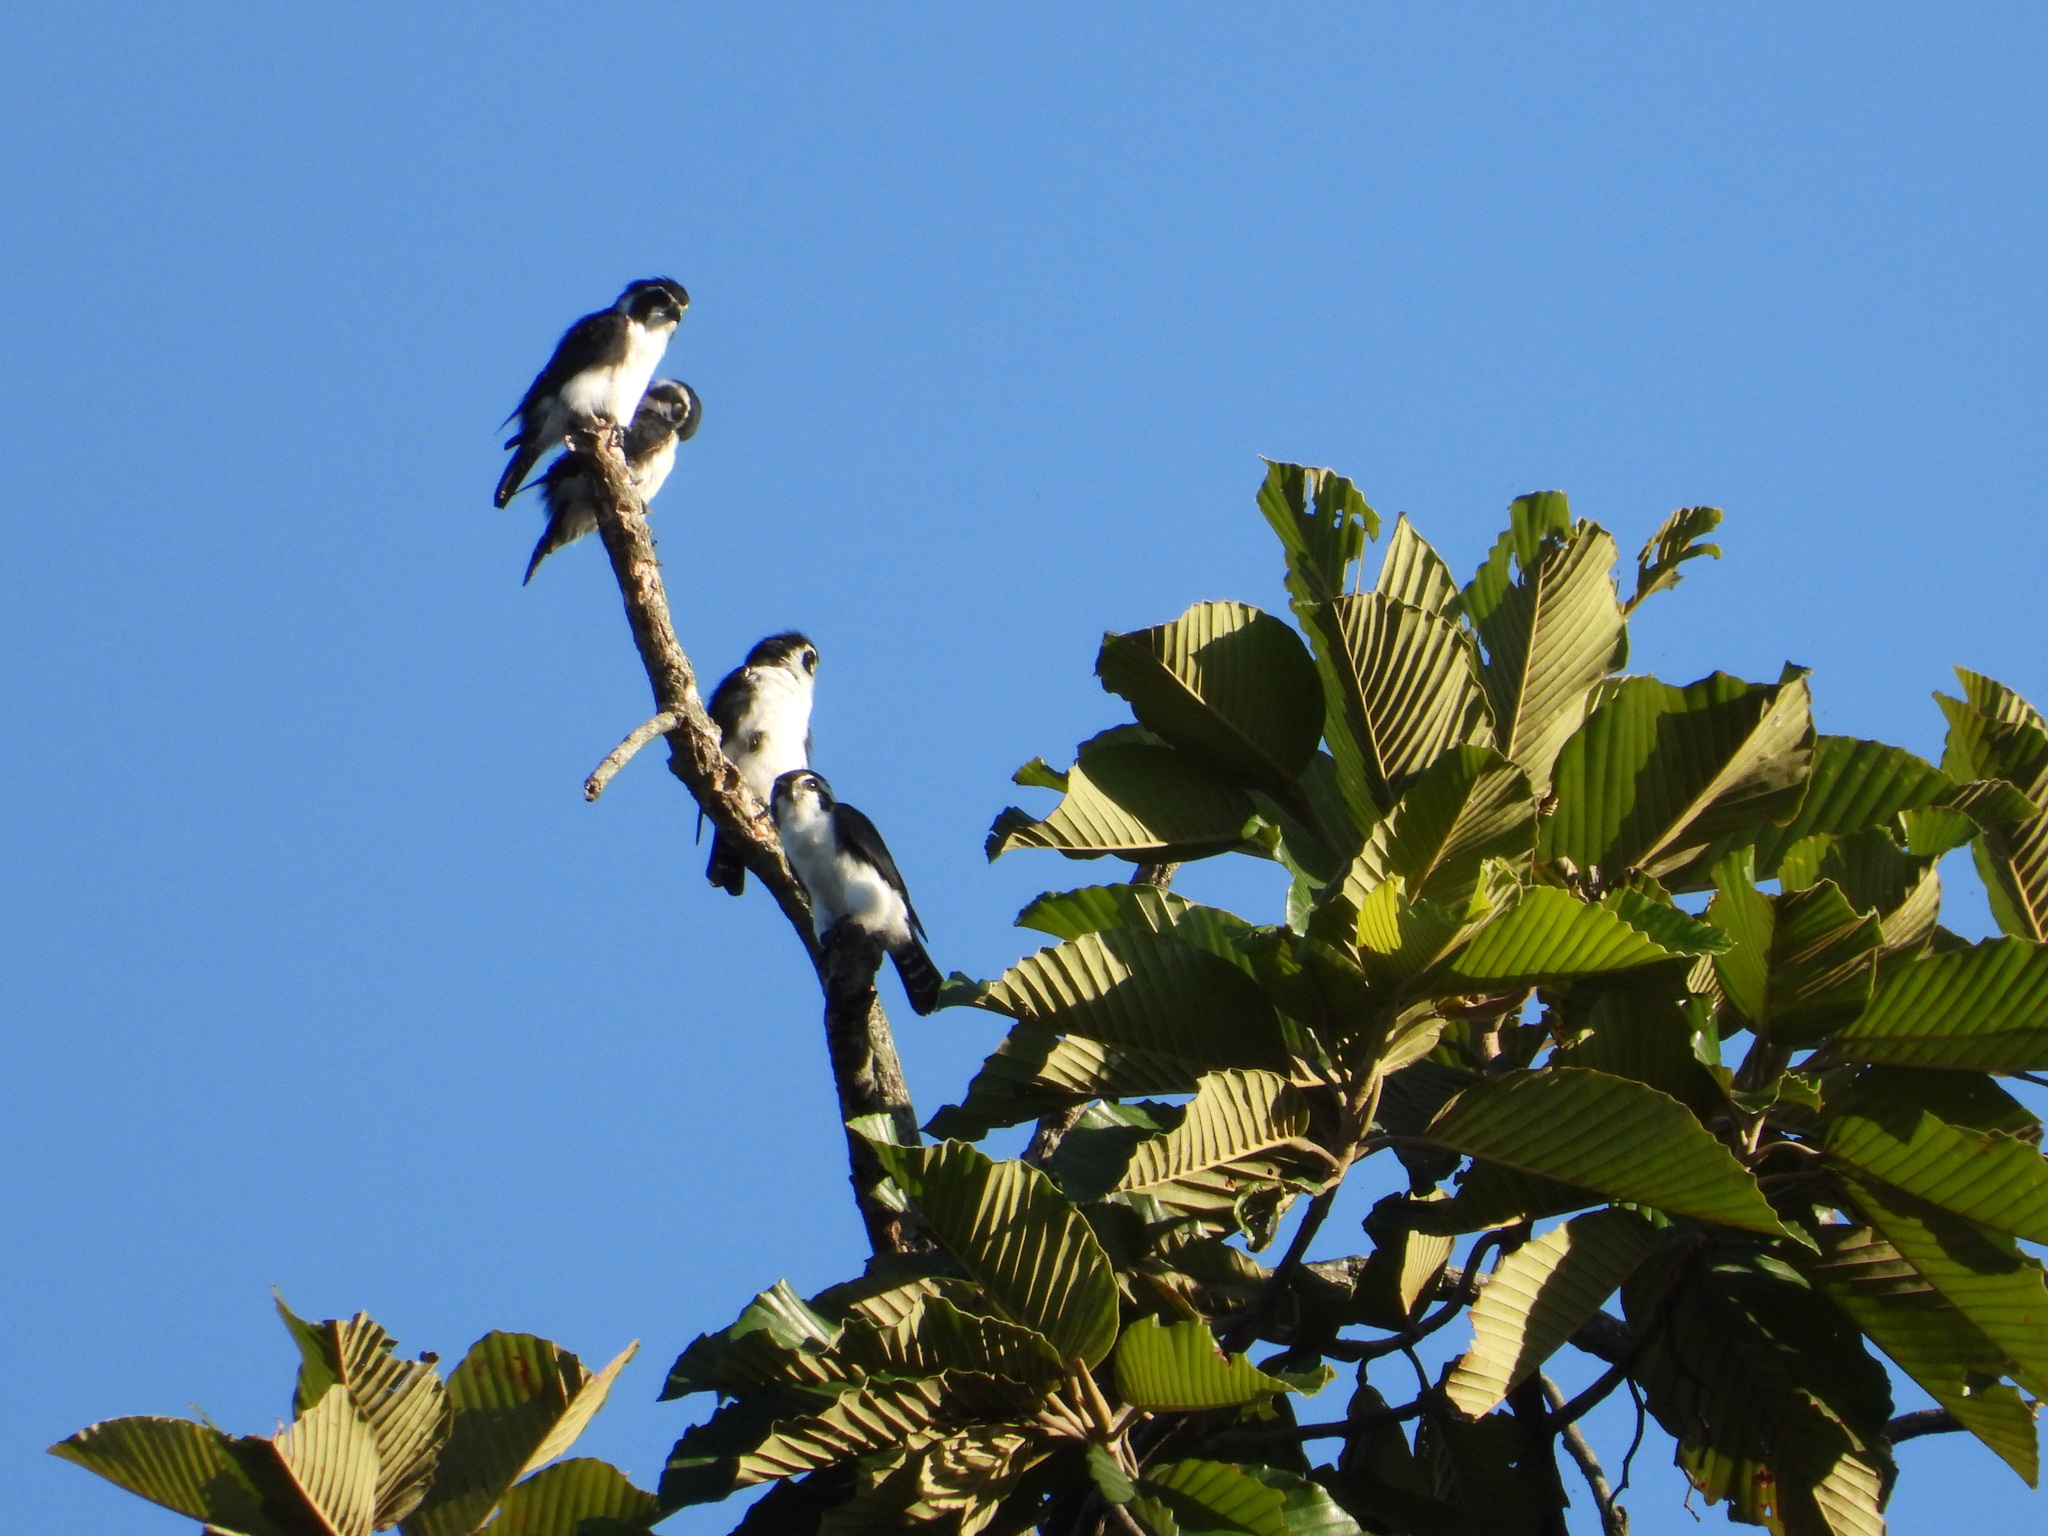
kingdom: Animalia
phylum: Chordata
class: Aves
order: Falconiformes
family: Falconidae
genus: Microhierax
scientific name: Microhierax melanoleucos
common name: Pied falconet
